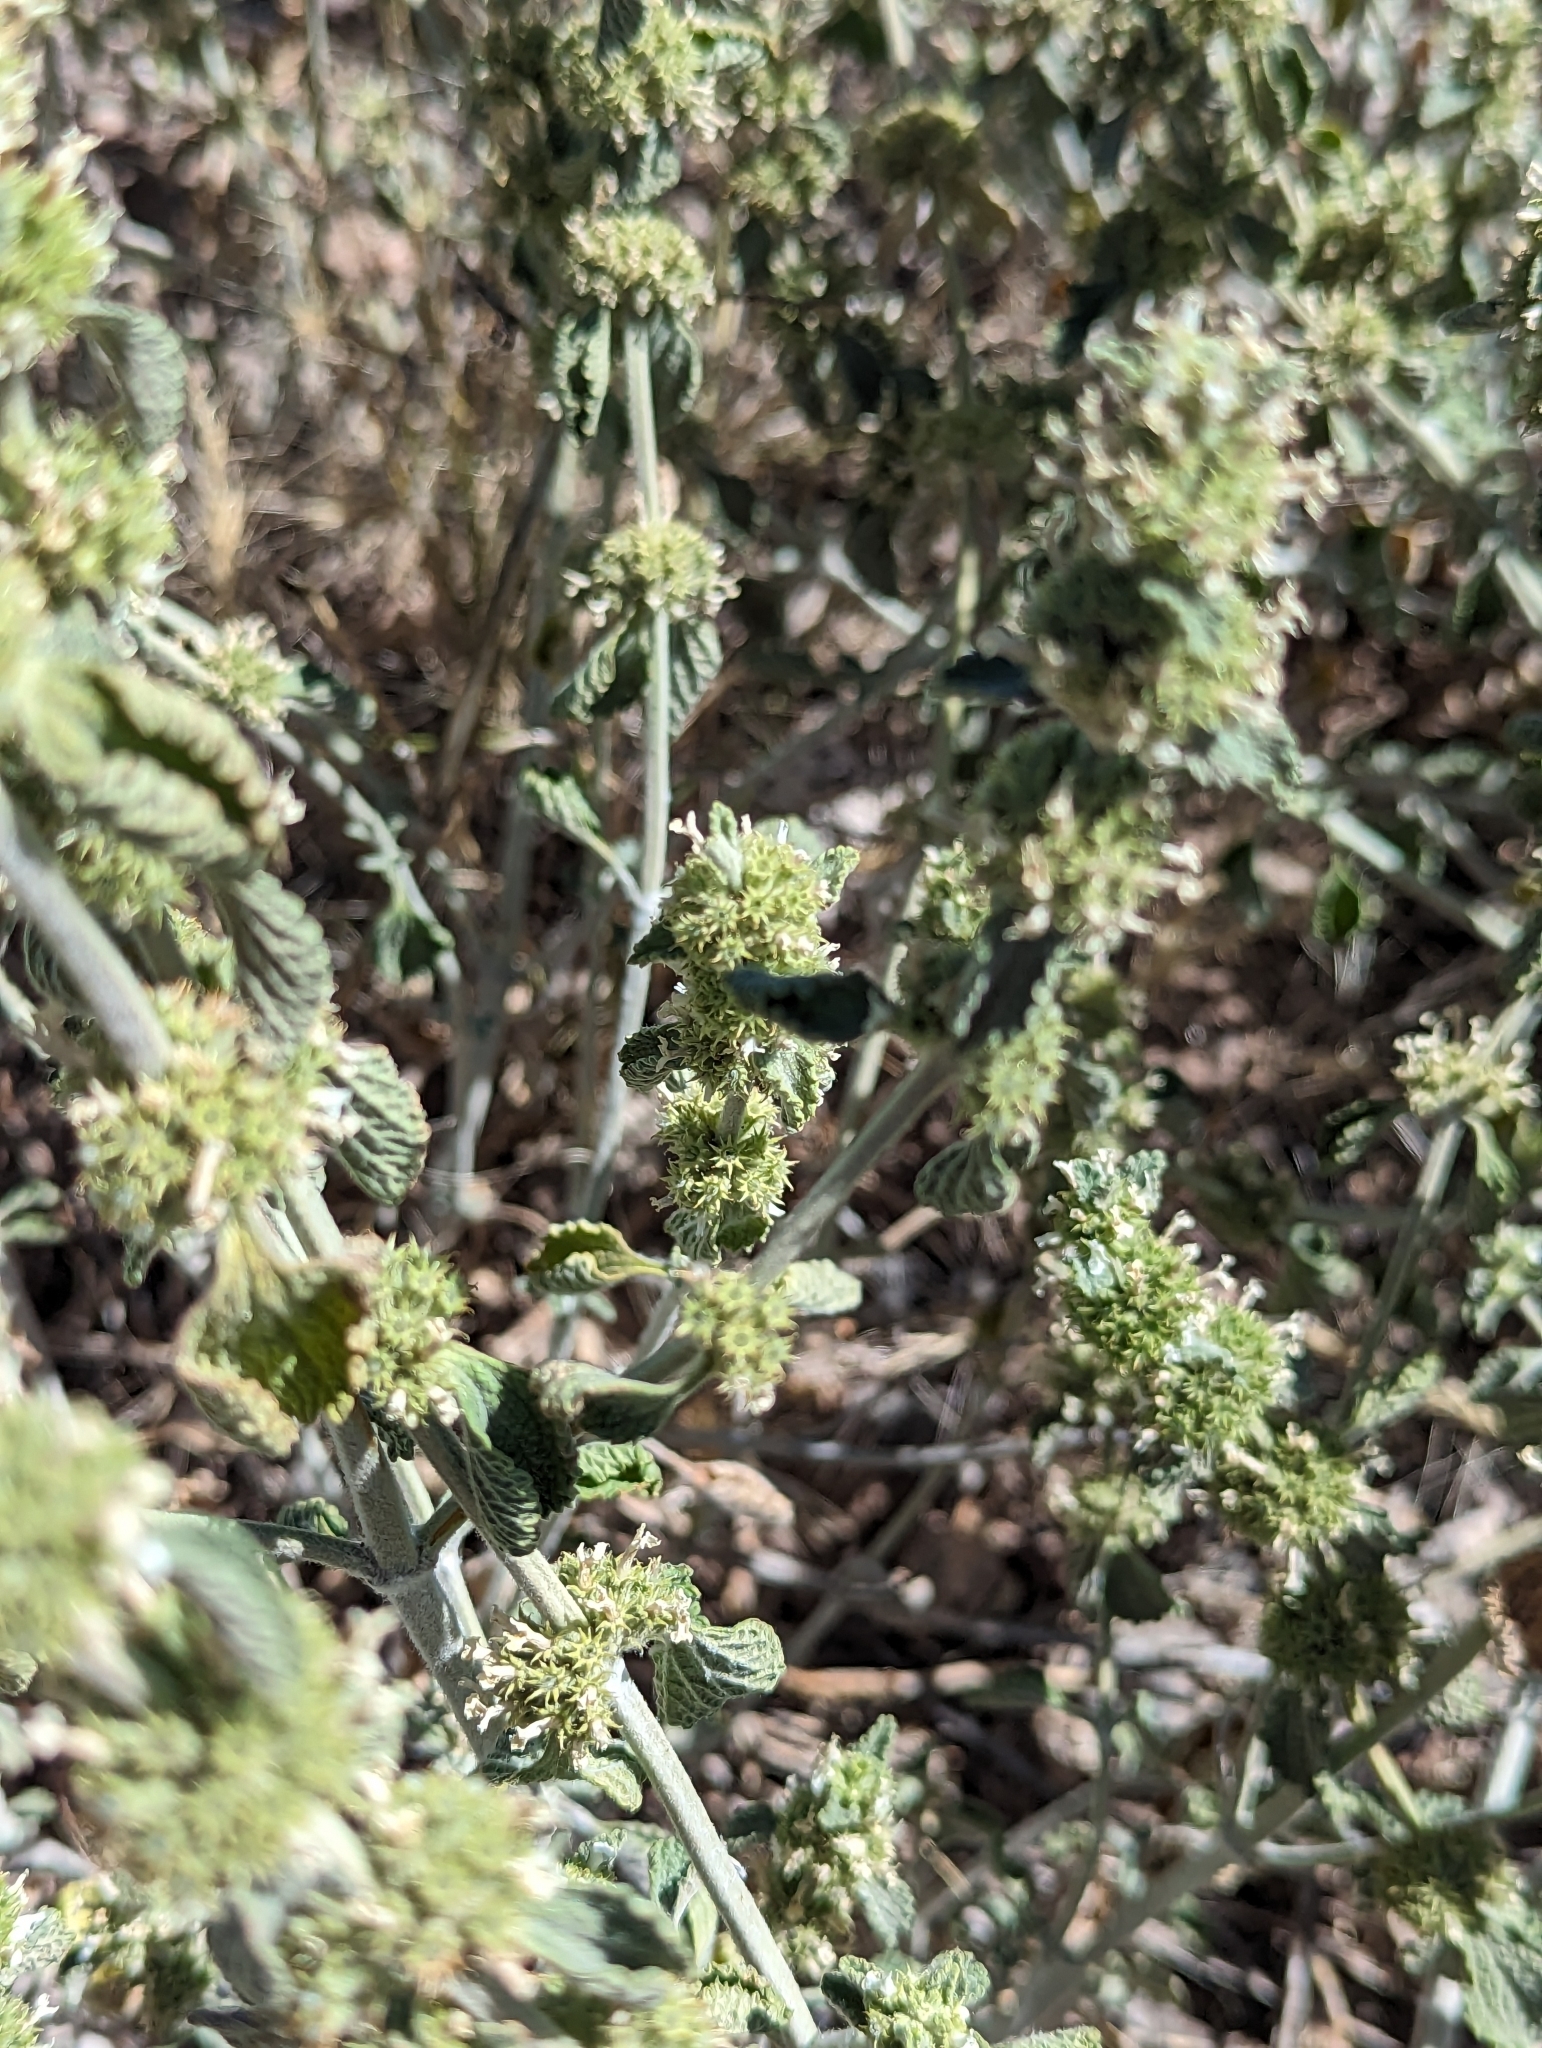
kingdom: Plantae
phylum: Tracheophyta
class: Magnoliopsida
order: Lamiales
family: Lamiaceae
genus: Marrubium
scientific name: Marrubium vulgare
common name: Horehound
